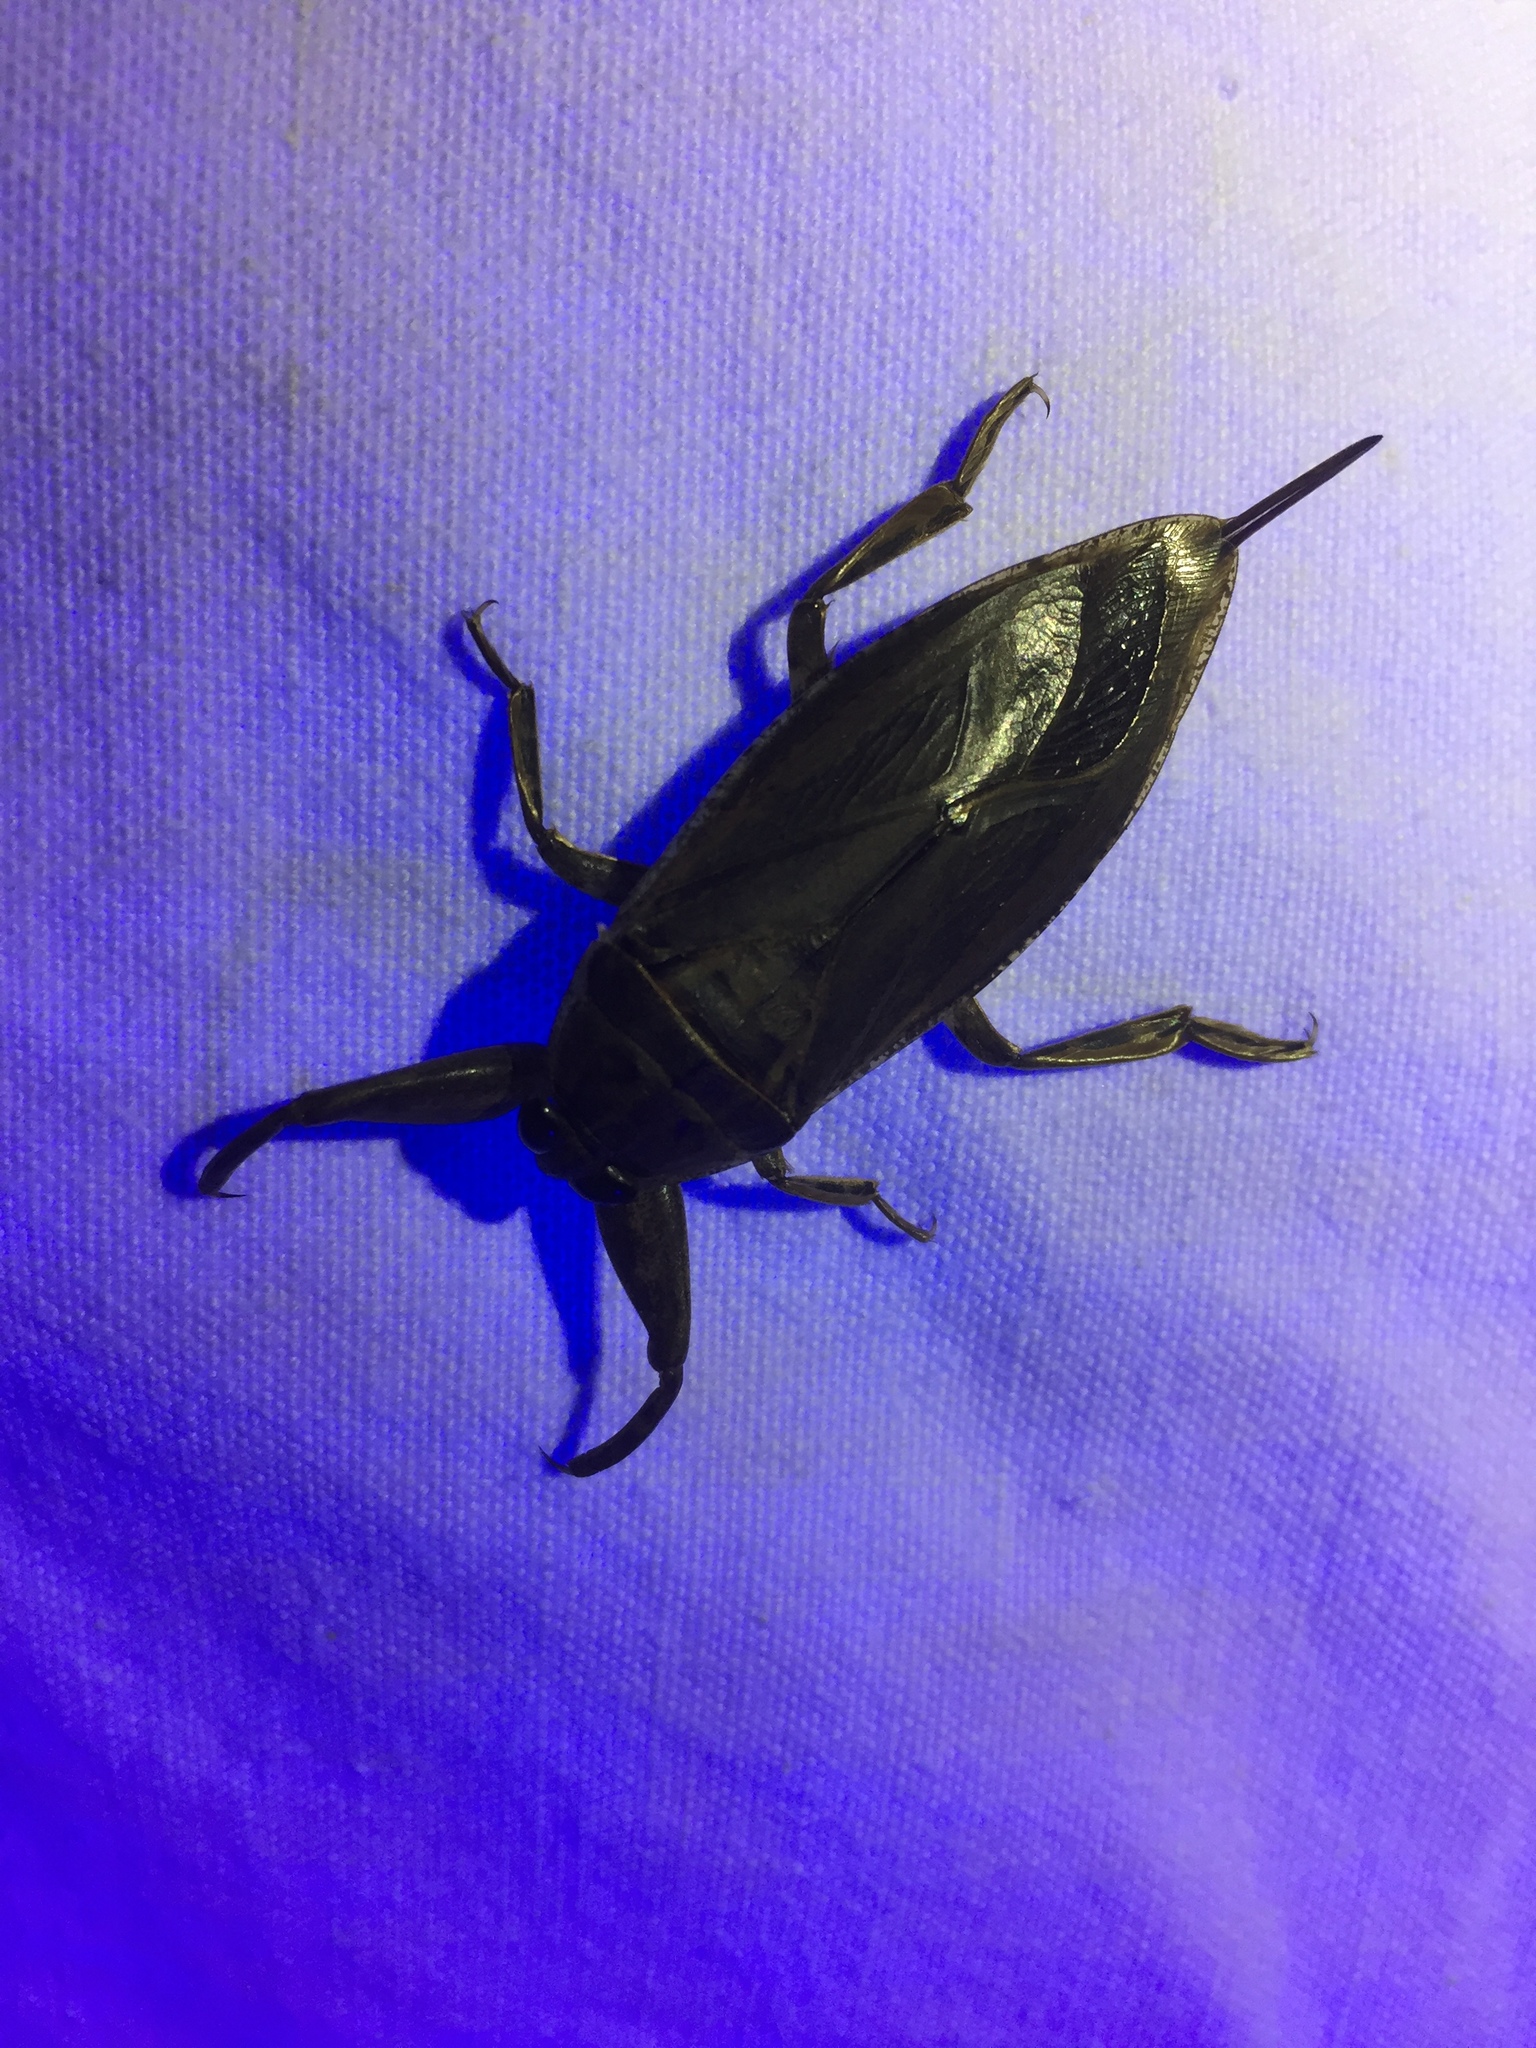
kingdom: Animalia
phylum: Arthropoda
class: Insecta
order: Hemiptera
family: Belostomatidae
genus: Lethocerus
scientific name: Lethocerus uhleri
